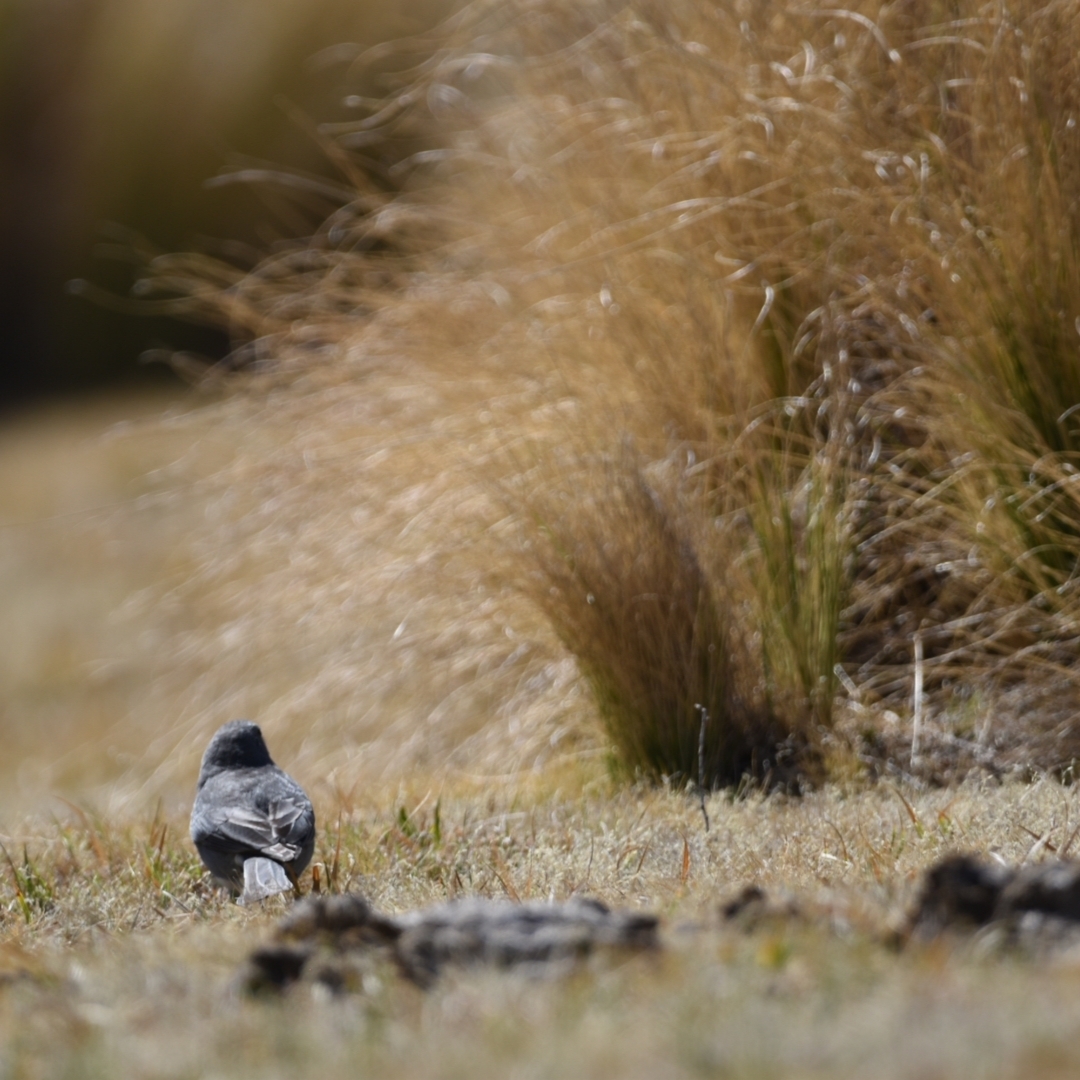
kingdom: Animalia
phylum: Chordata
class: Aves
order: Passeriformes
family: Thraupidae
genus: Geospizopsis
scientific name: Geospizopsis unicolor
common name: Plumbeous sierra-finch
